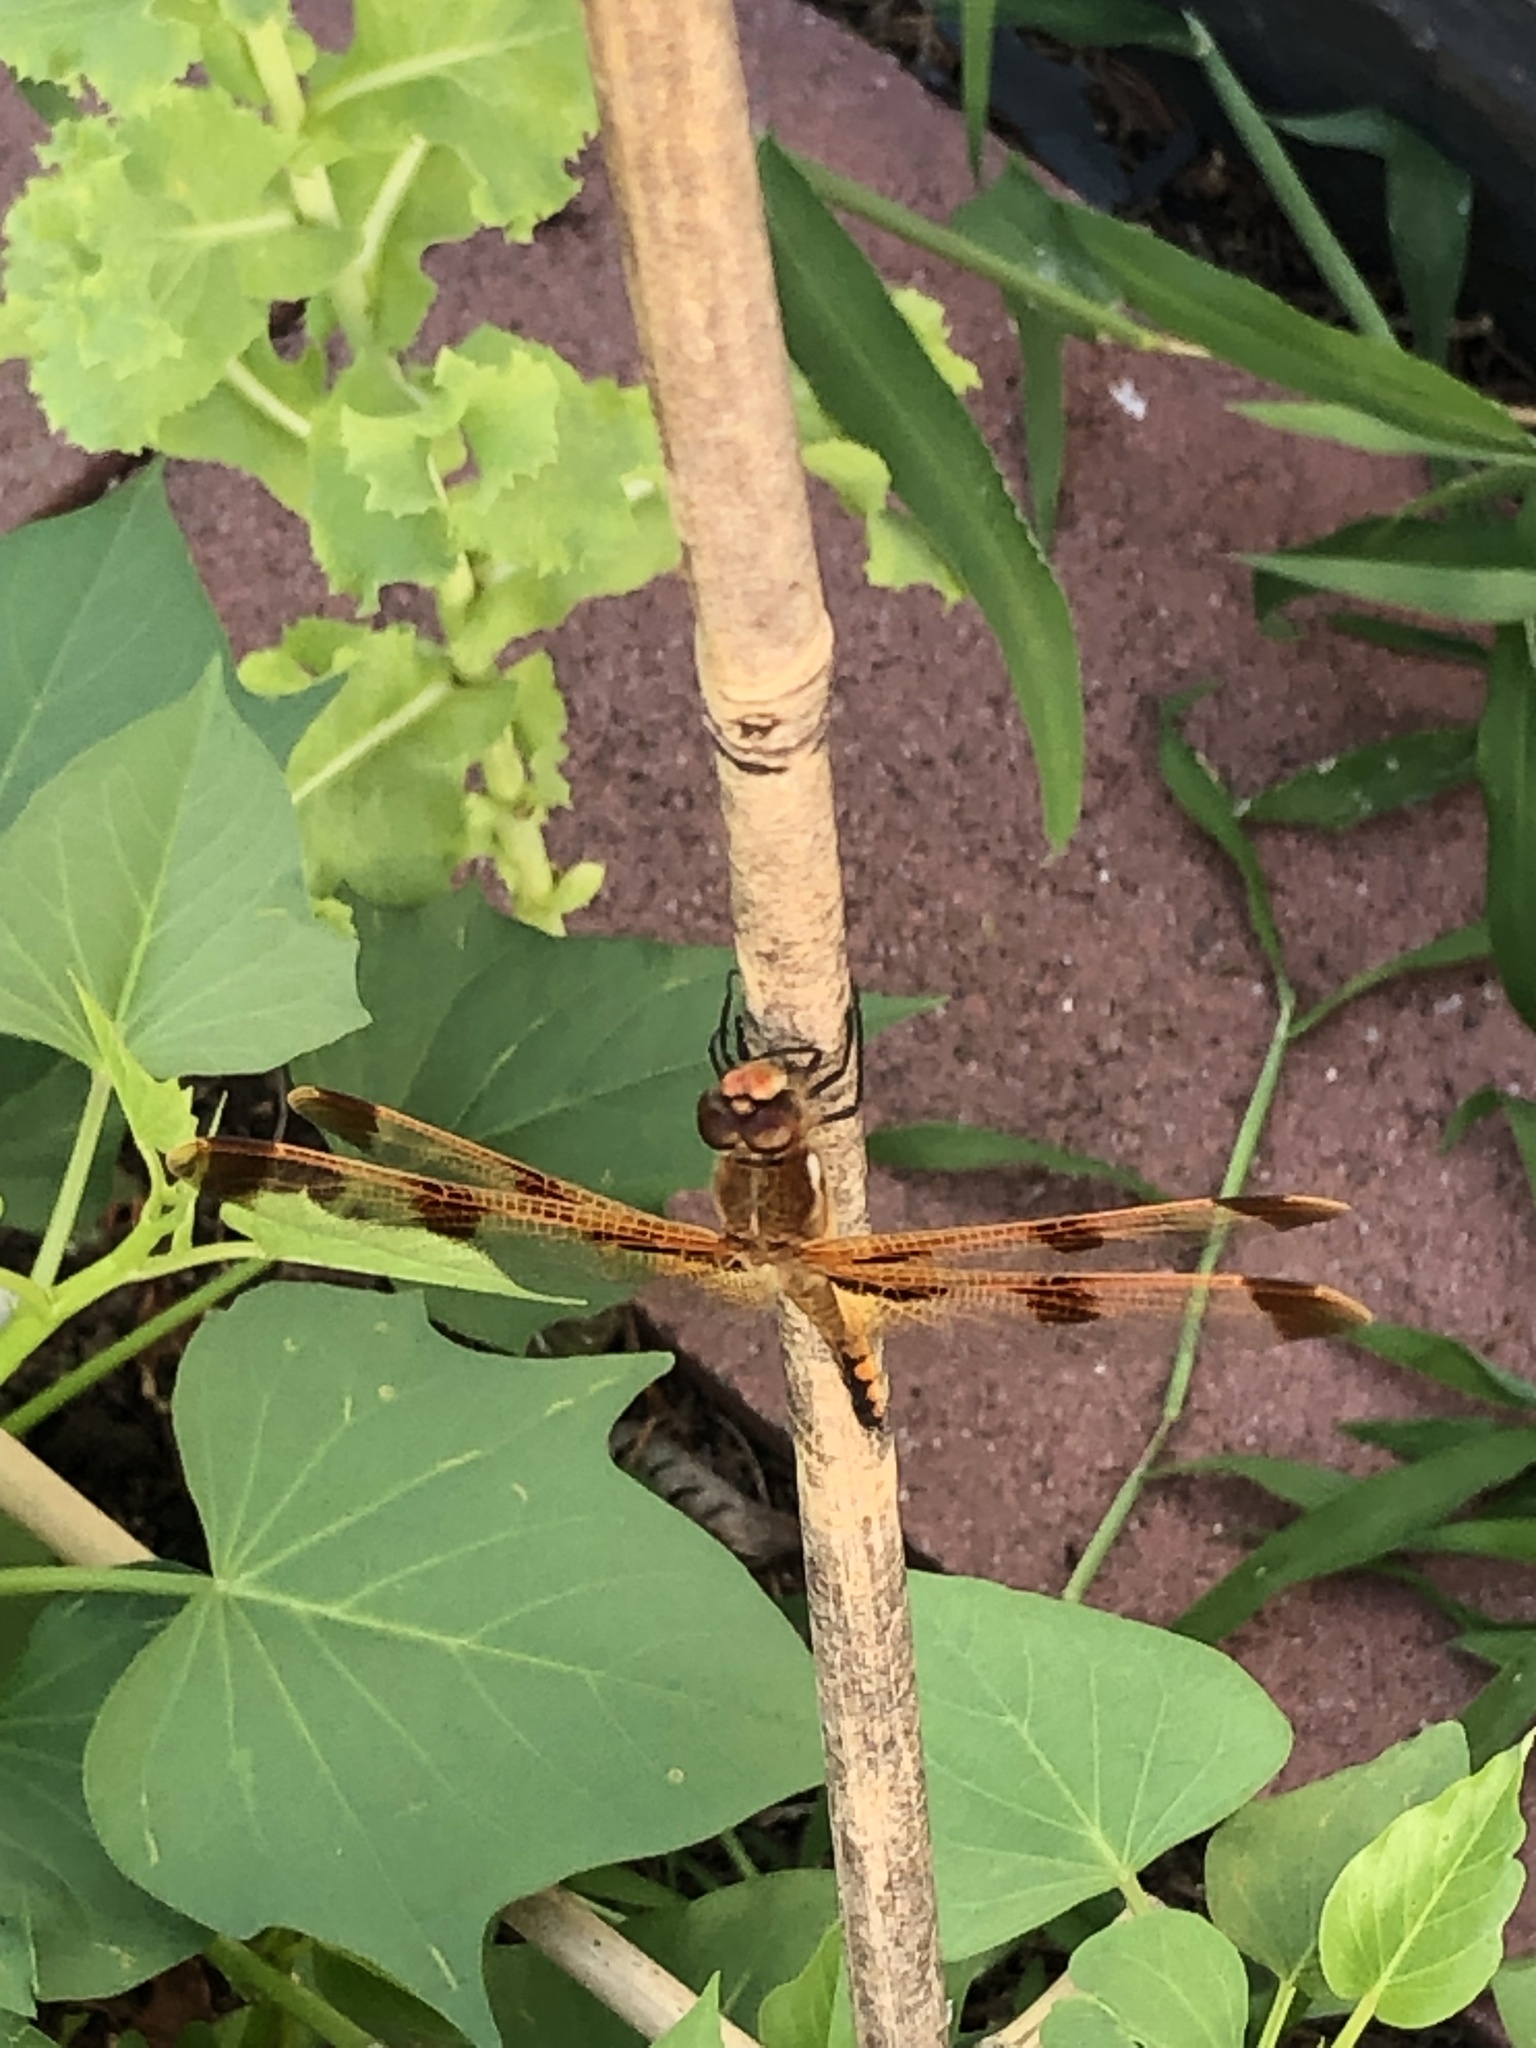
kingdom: Animalia
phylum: Arthropoda
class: Insecta
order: Odonata
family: Libellulidae
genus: Libellula
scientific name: Libellula semifasciata
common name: Painted skimmer
